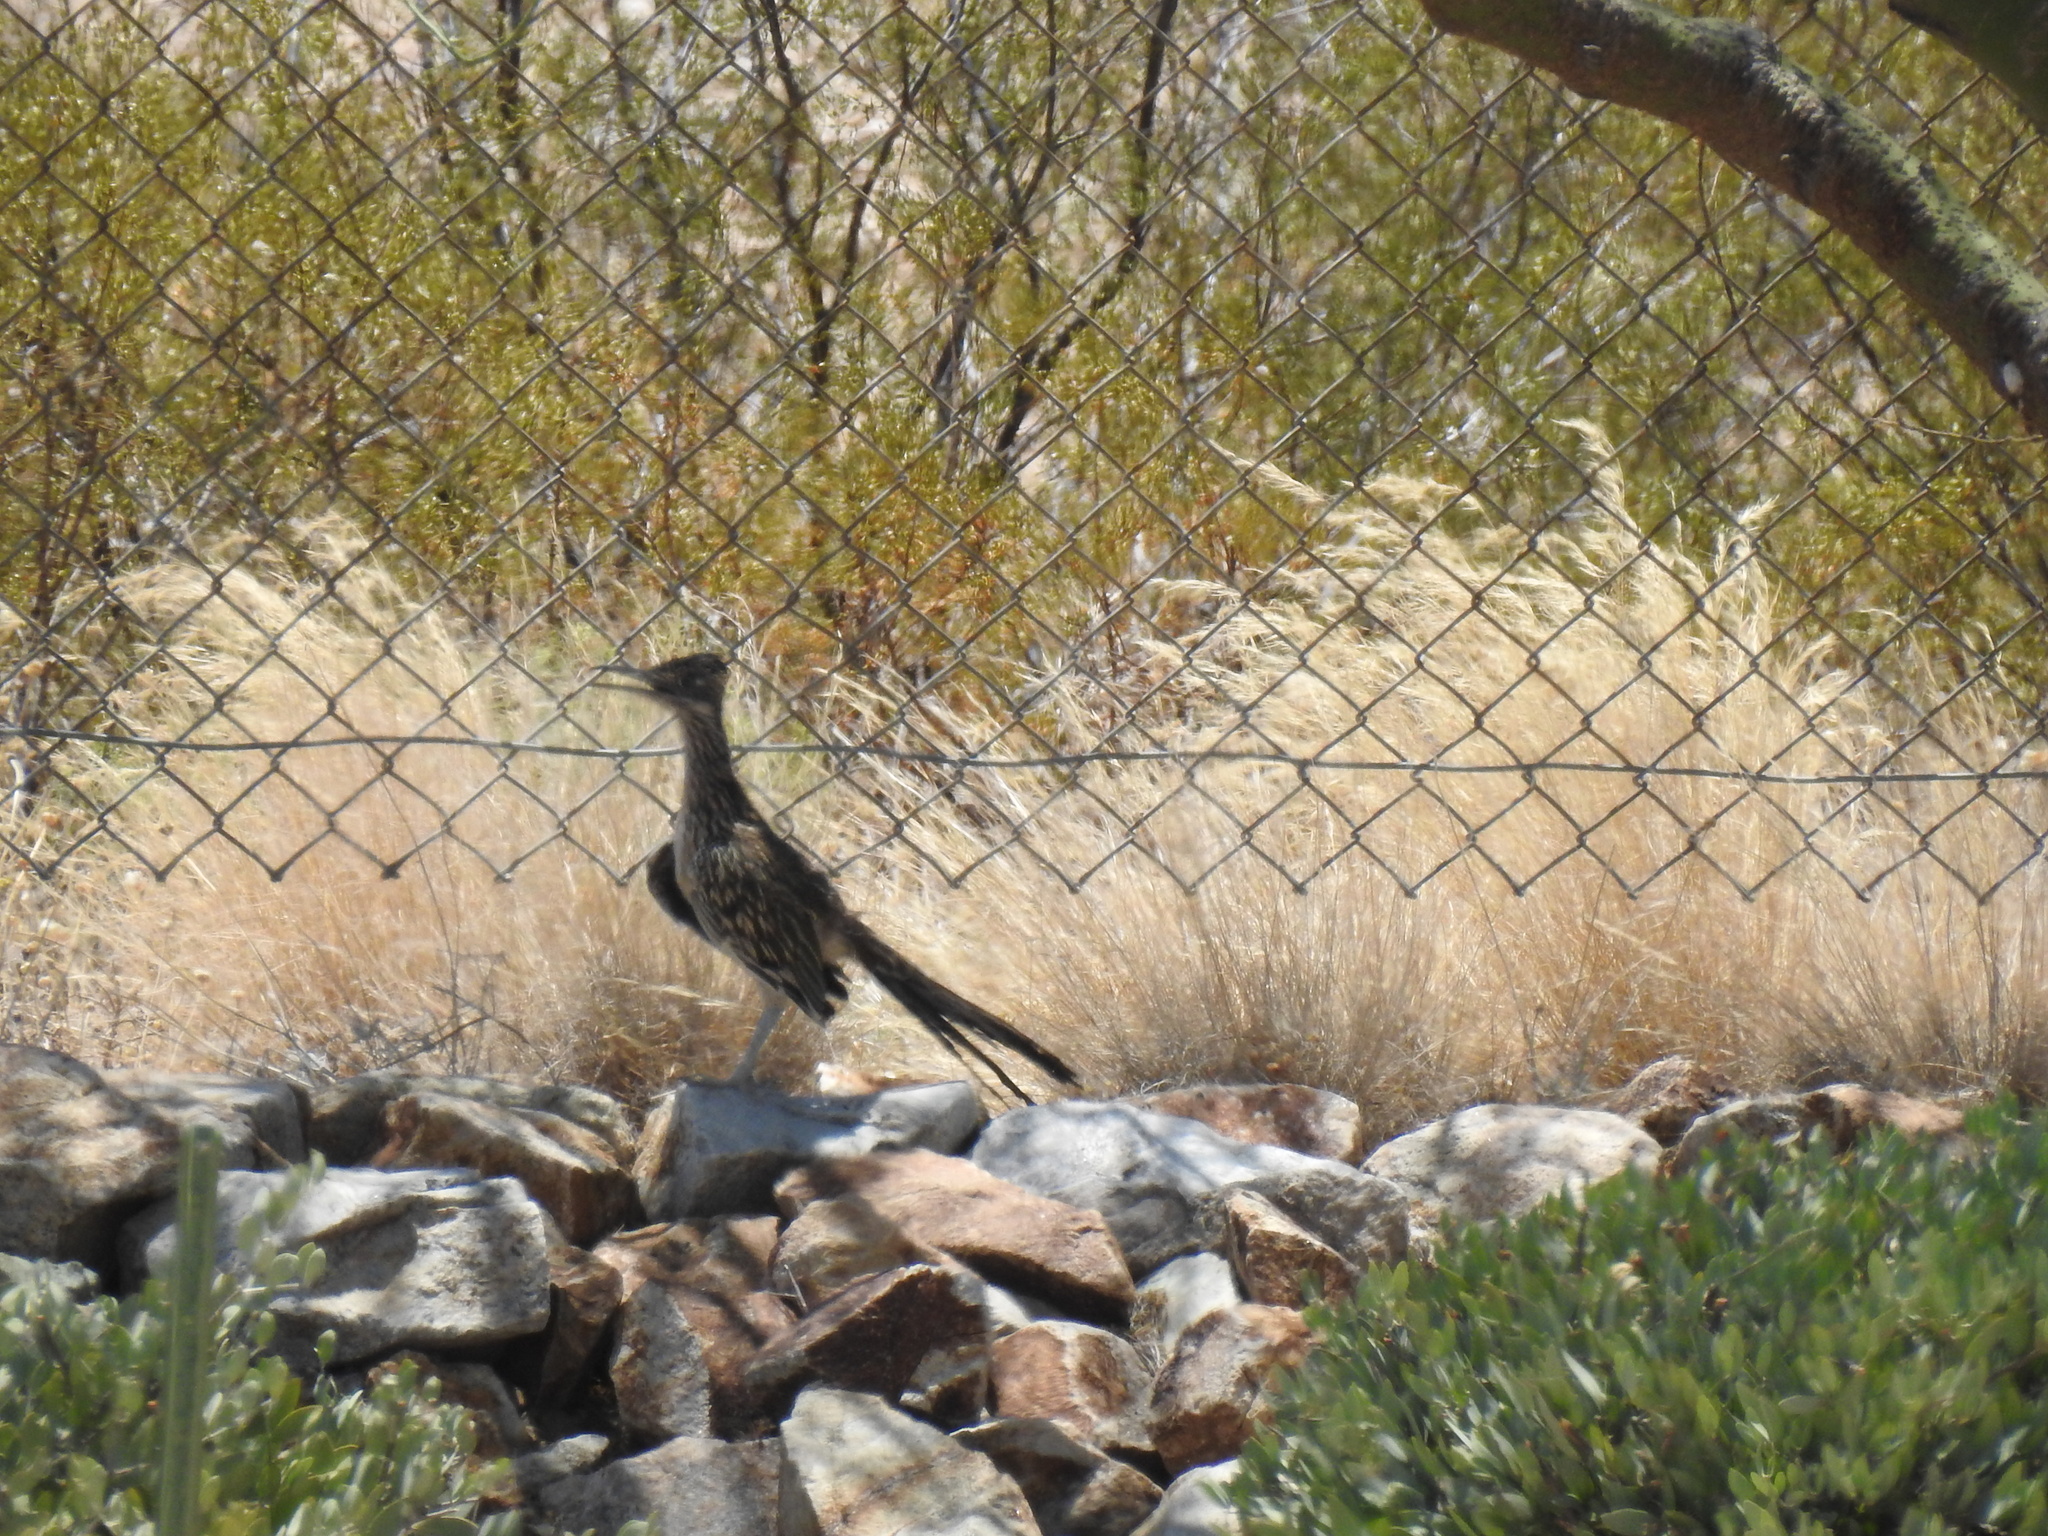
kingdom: Animalia
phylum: Chordata
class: Aves
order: Cuculiformes
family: Cuculidae
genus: Geococcyx
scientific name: Geococcyx californianus
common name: Greater roadrunner
